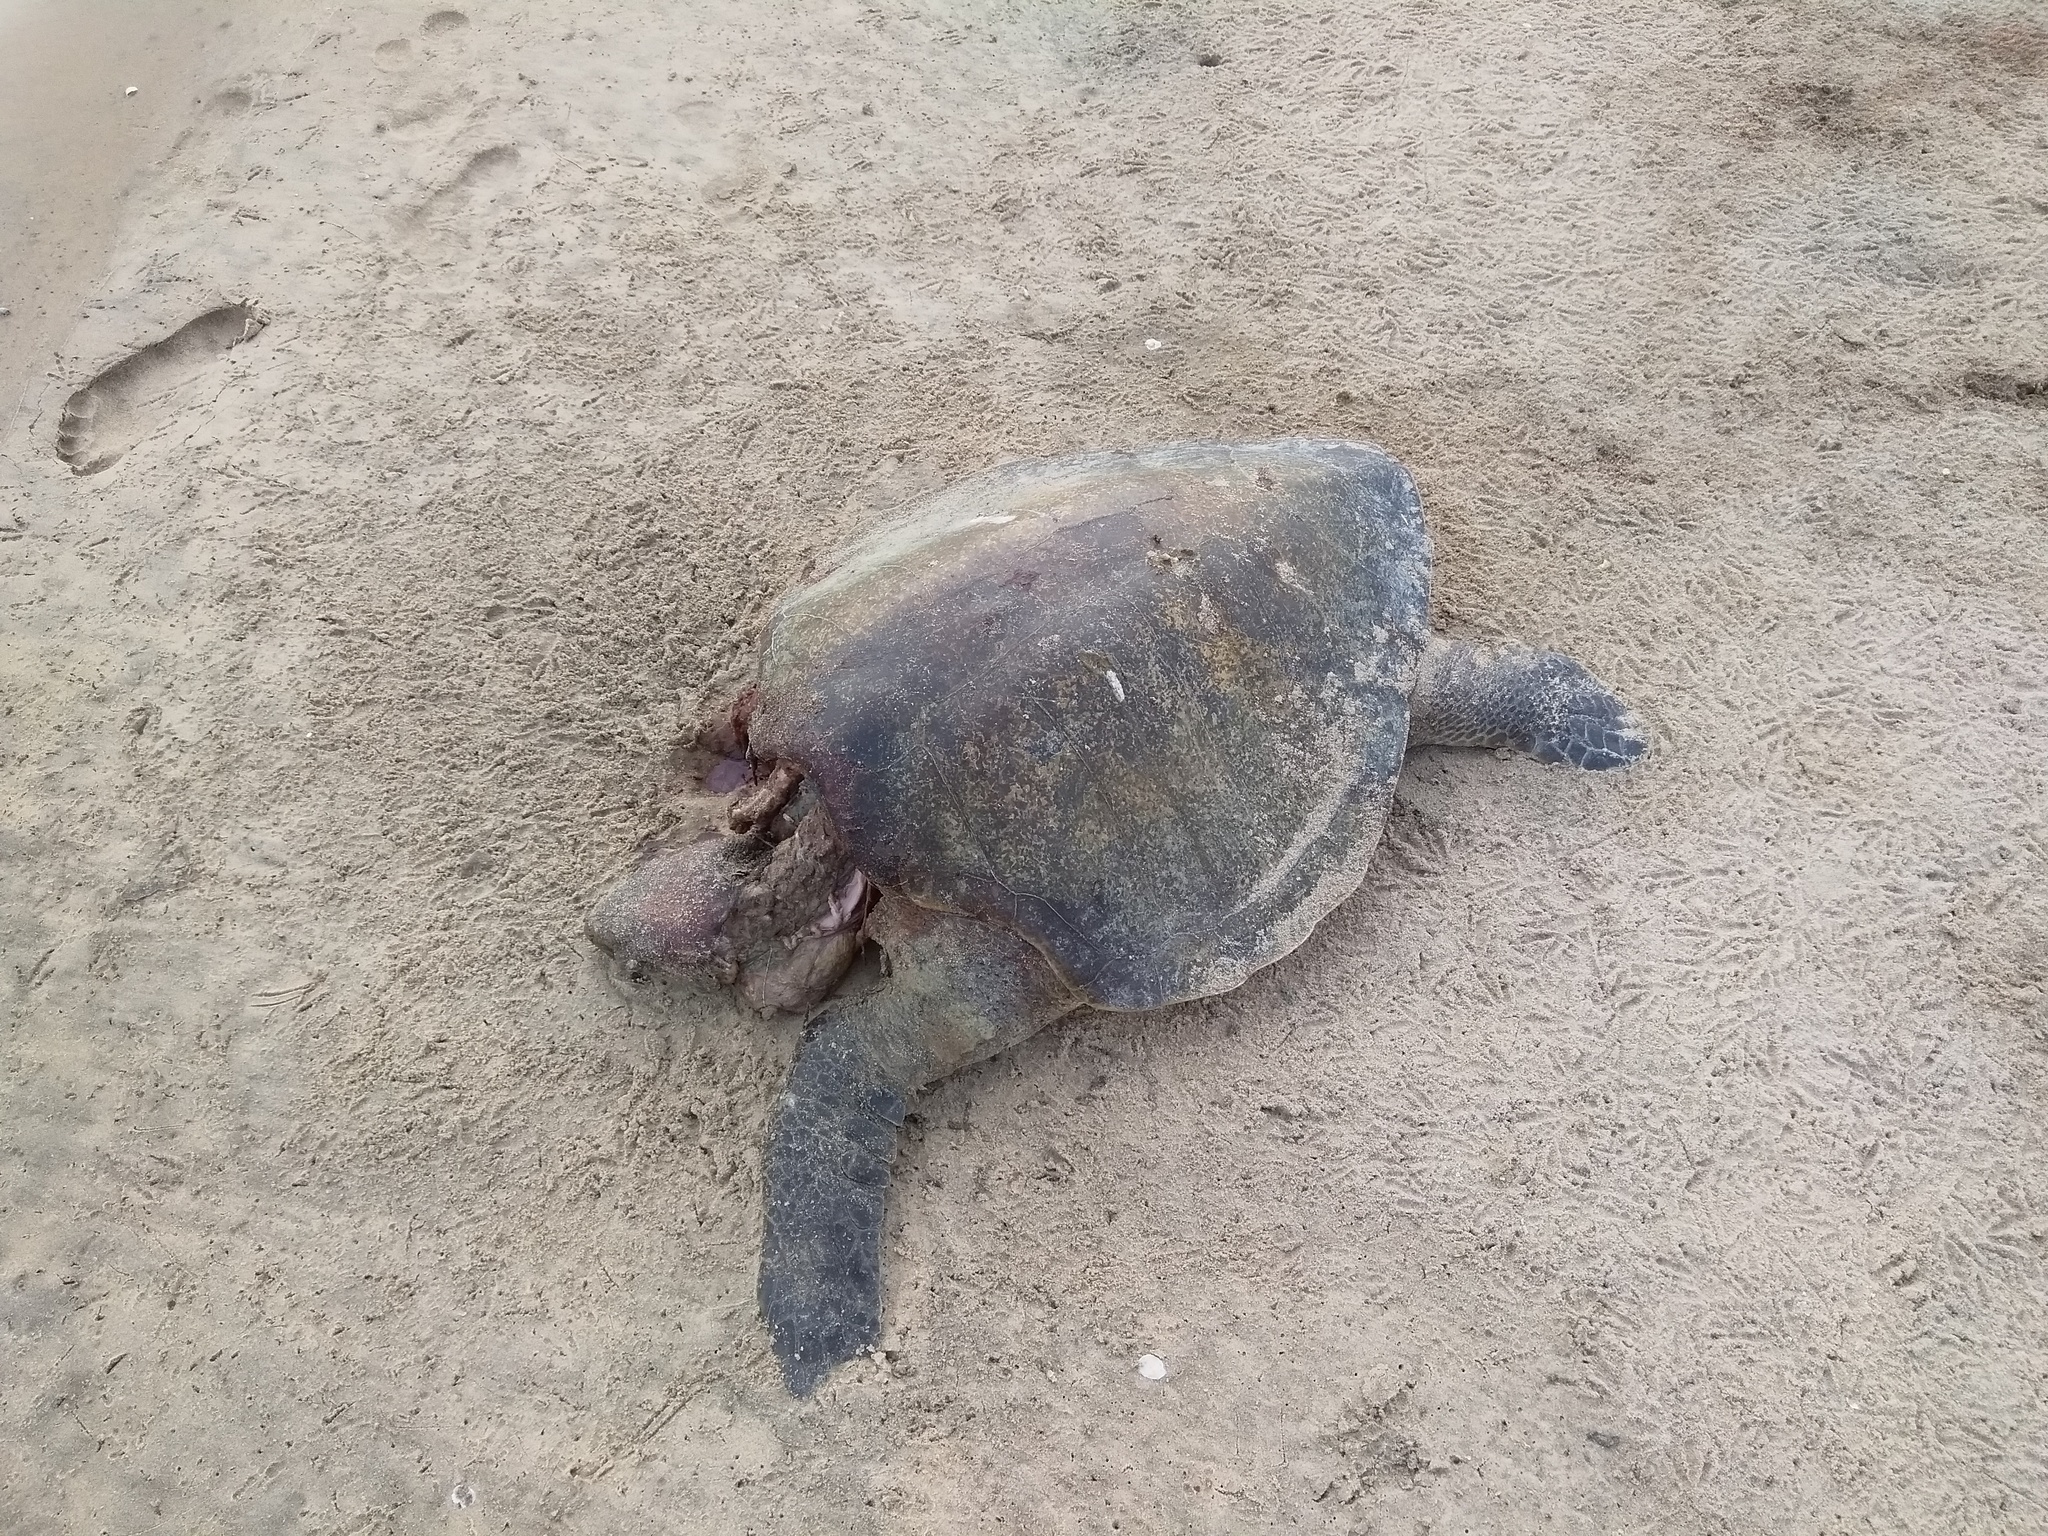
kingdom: Animalia
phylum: Chordata
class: Testudines
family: Cheloniidae
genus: Lepidochelys
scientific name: Lepidochelys olivacea
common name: Olive ridley
